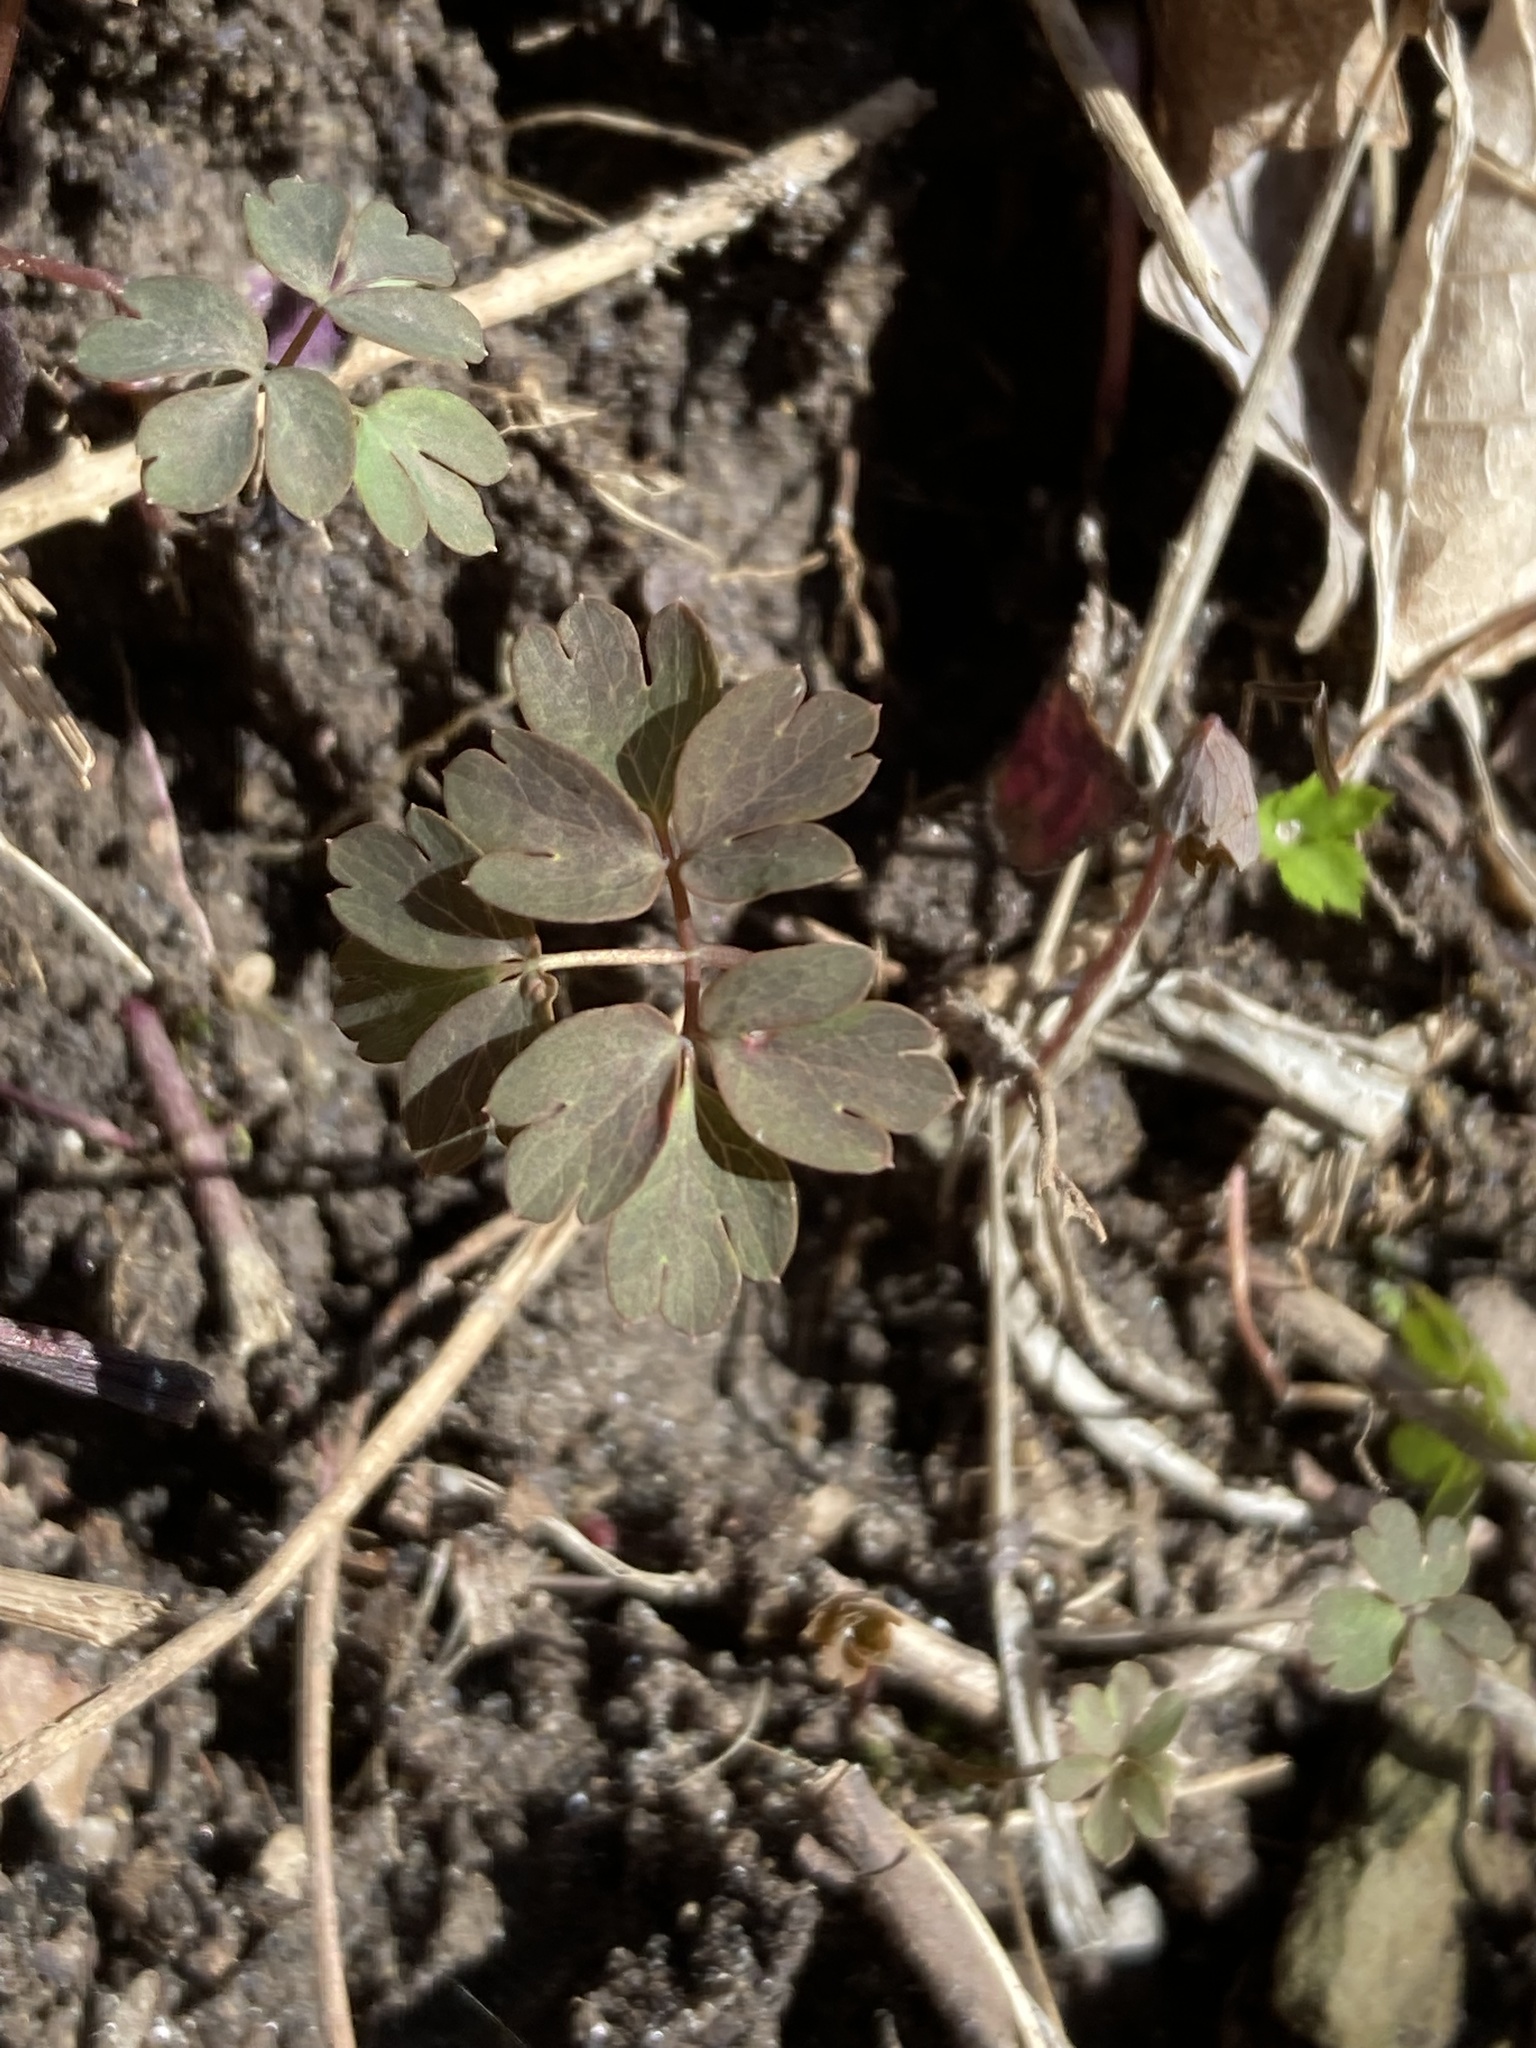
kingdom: Plantae
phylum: Tracheophyta
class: Magnoliopsida
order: Ranunculales
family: Ranunculaceae
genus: Enemion
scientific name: Enemion biternatum
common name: Eastern false rue-anemone
